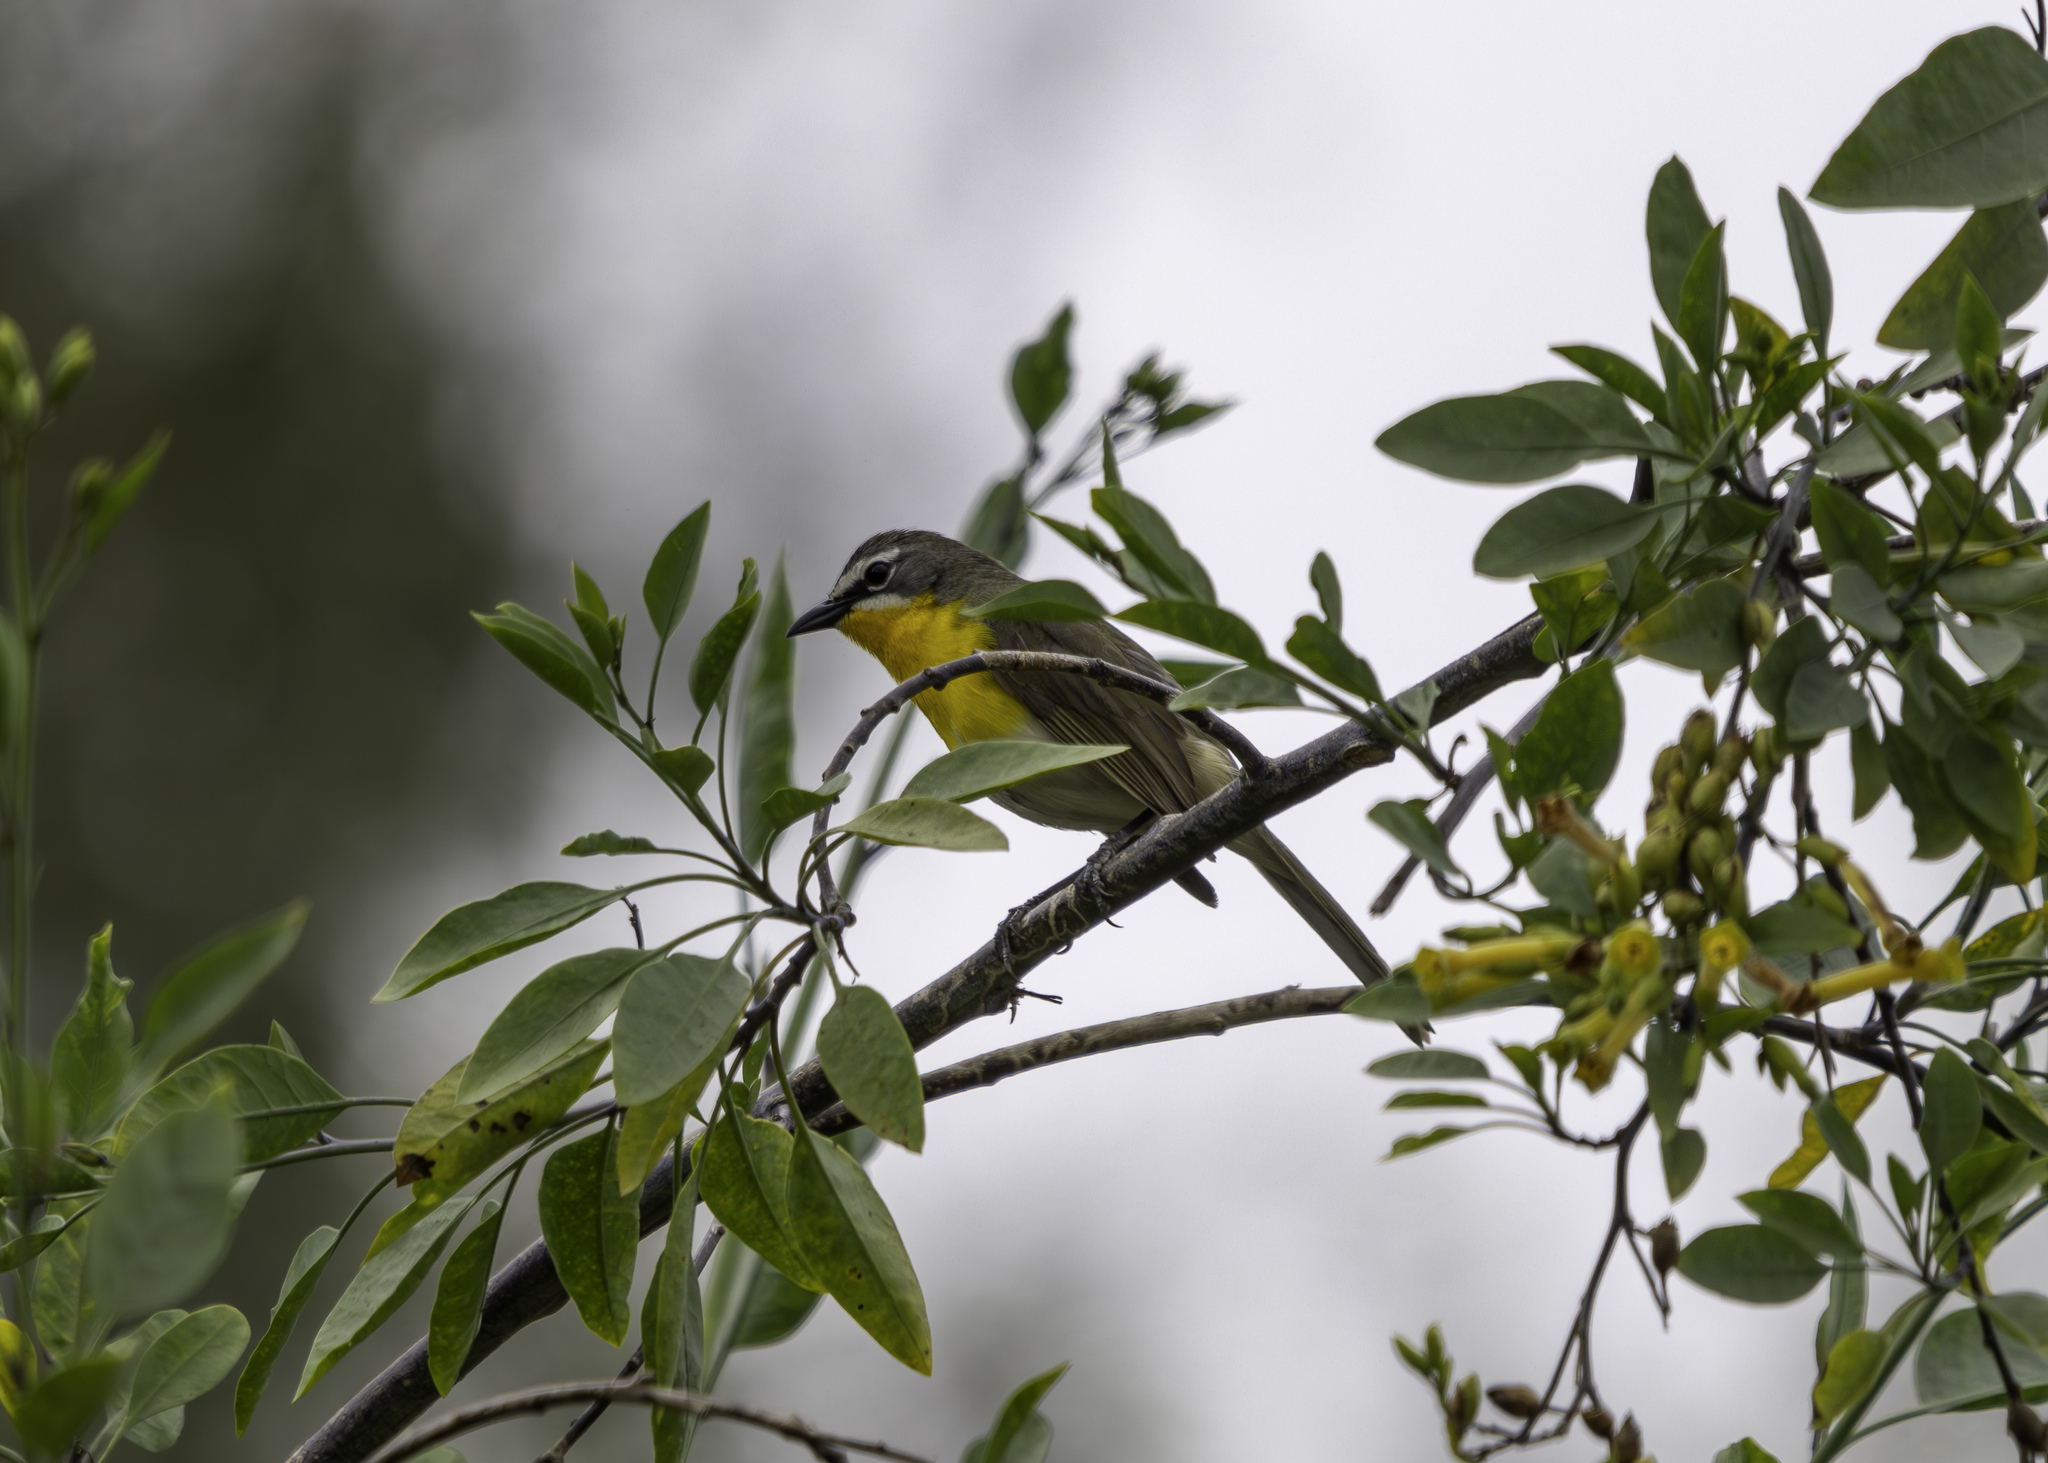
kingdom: Animalia
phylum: Chordata
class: Aves
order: Passeriformes
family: Parulidae
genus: Icteria
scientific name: Icteria virens
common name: Yellow-breasted chat
